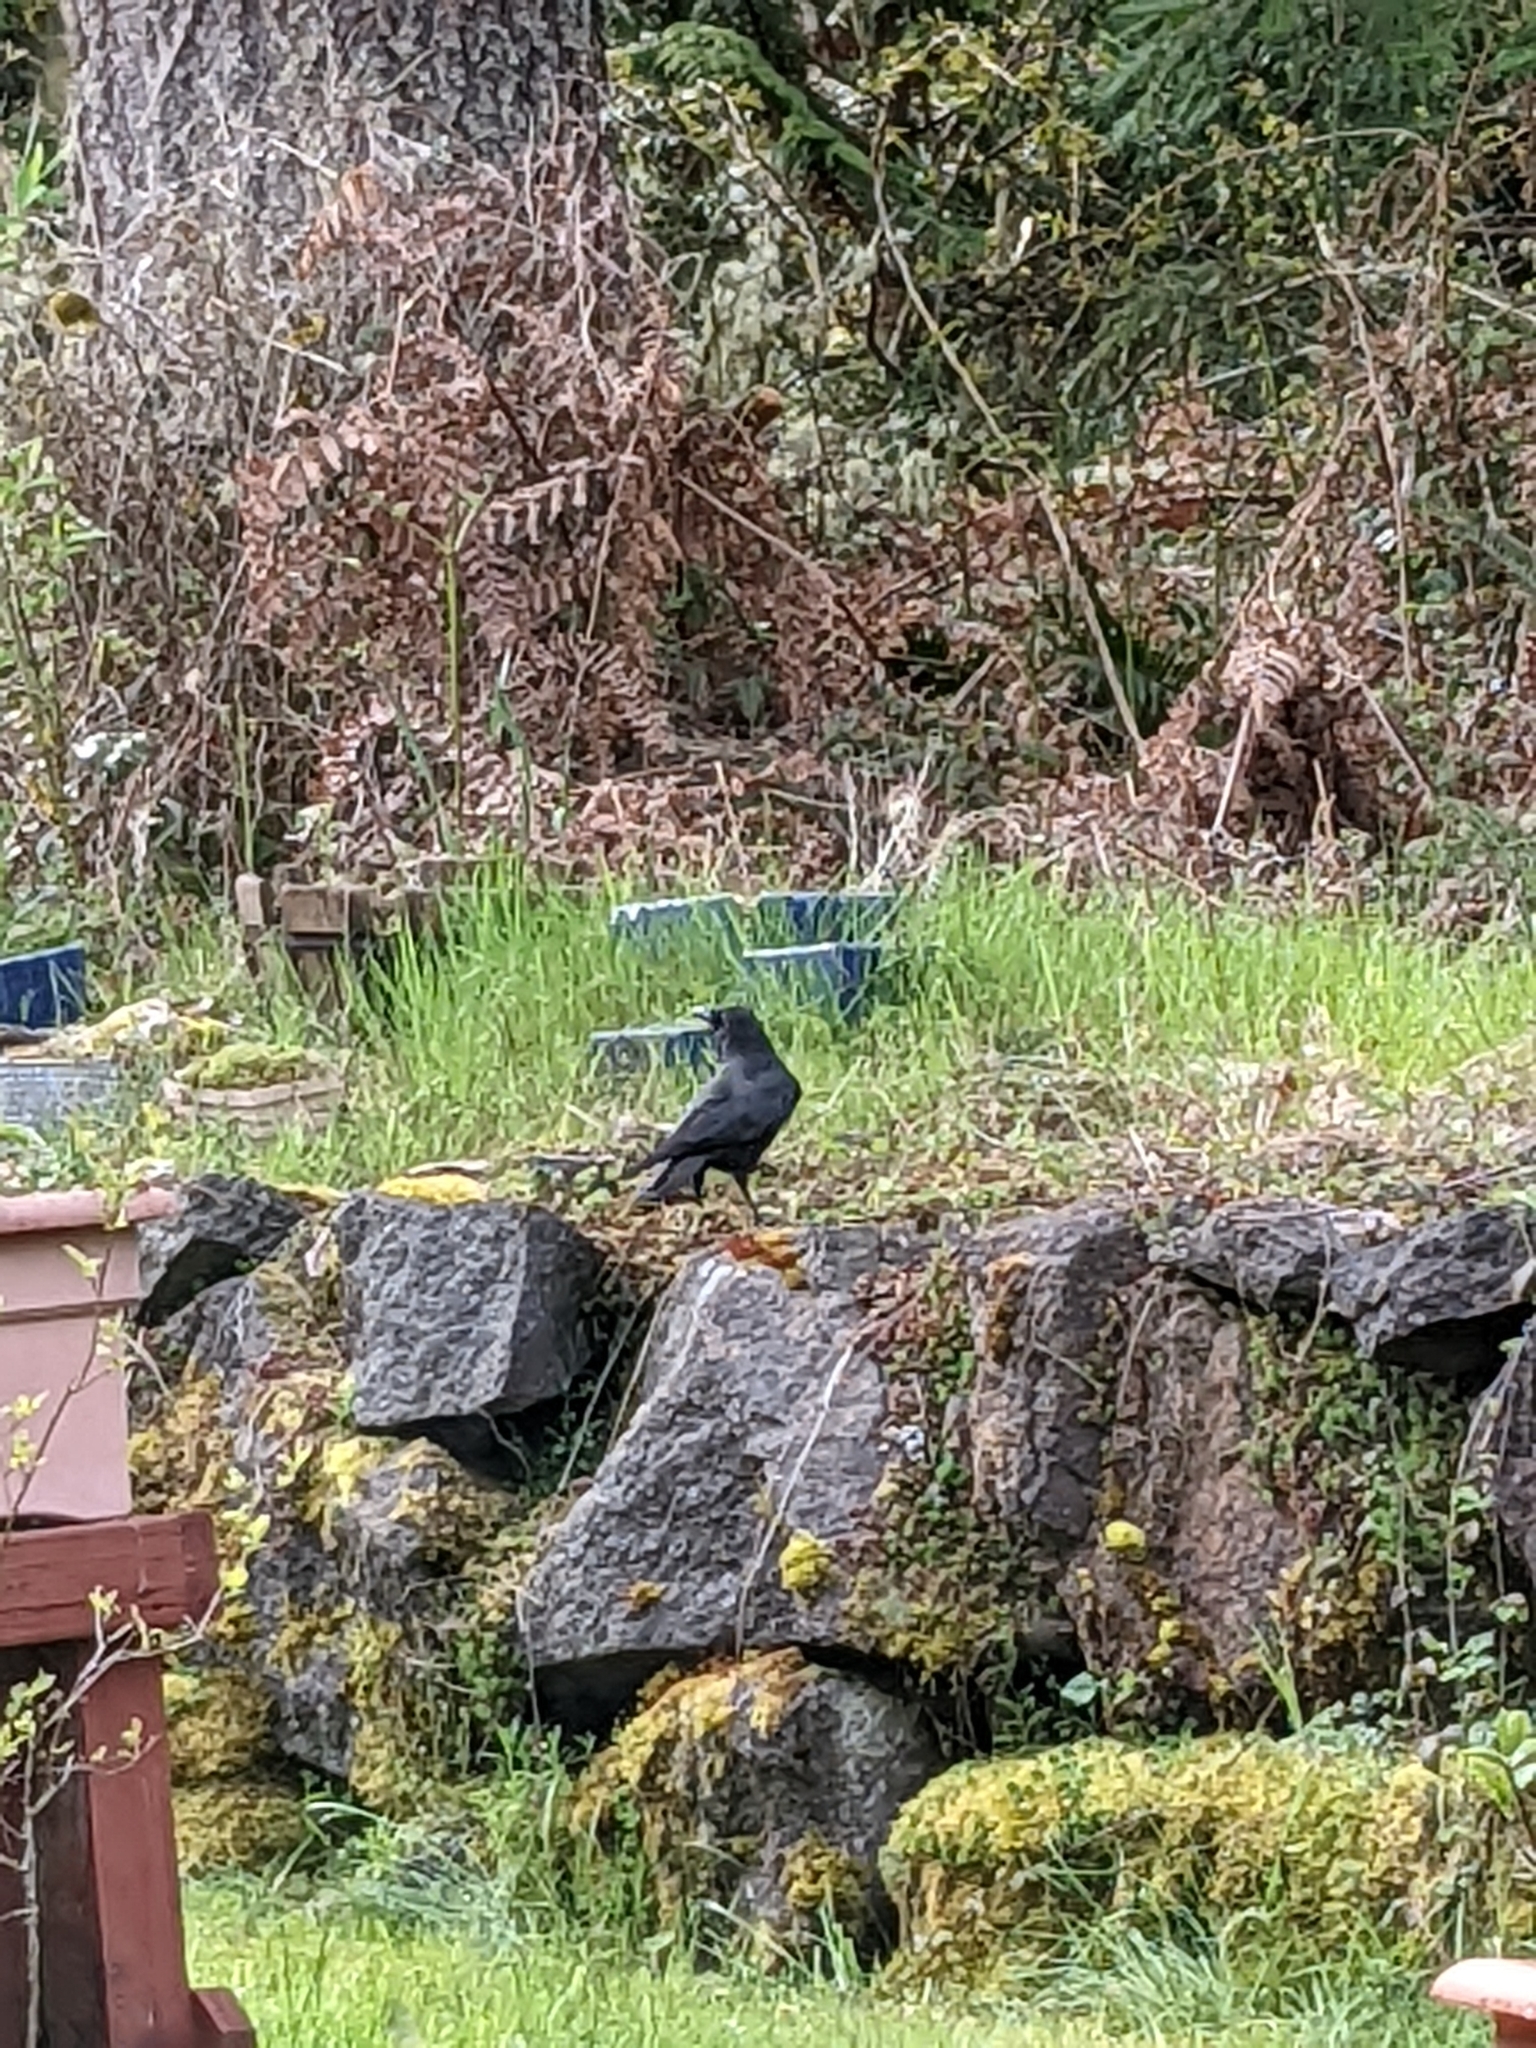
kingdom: Animalia
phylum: Chordata
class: Aves
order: Passeriformes
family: Corvidae
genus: Corvus
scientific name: Corvus brachyrhynchos
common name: American crow
